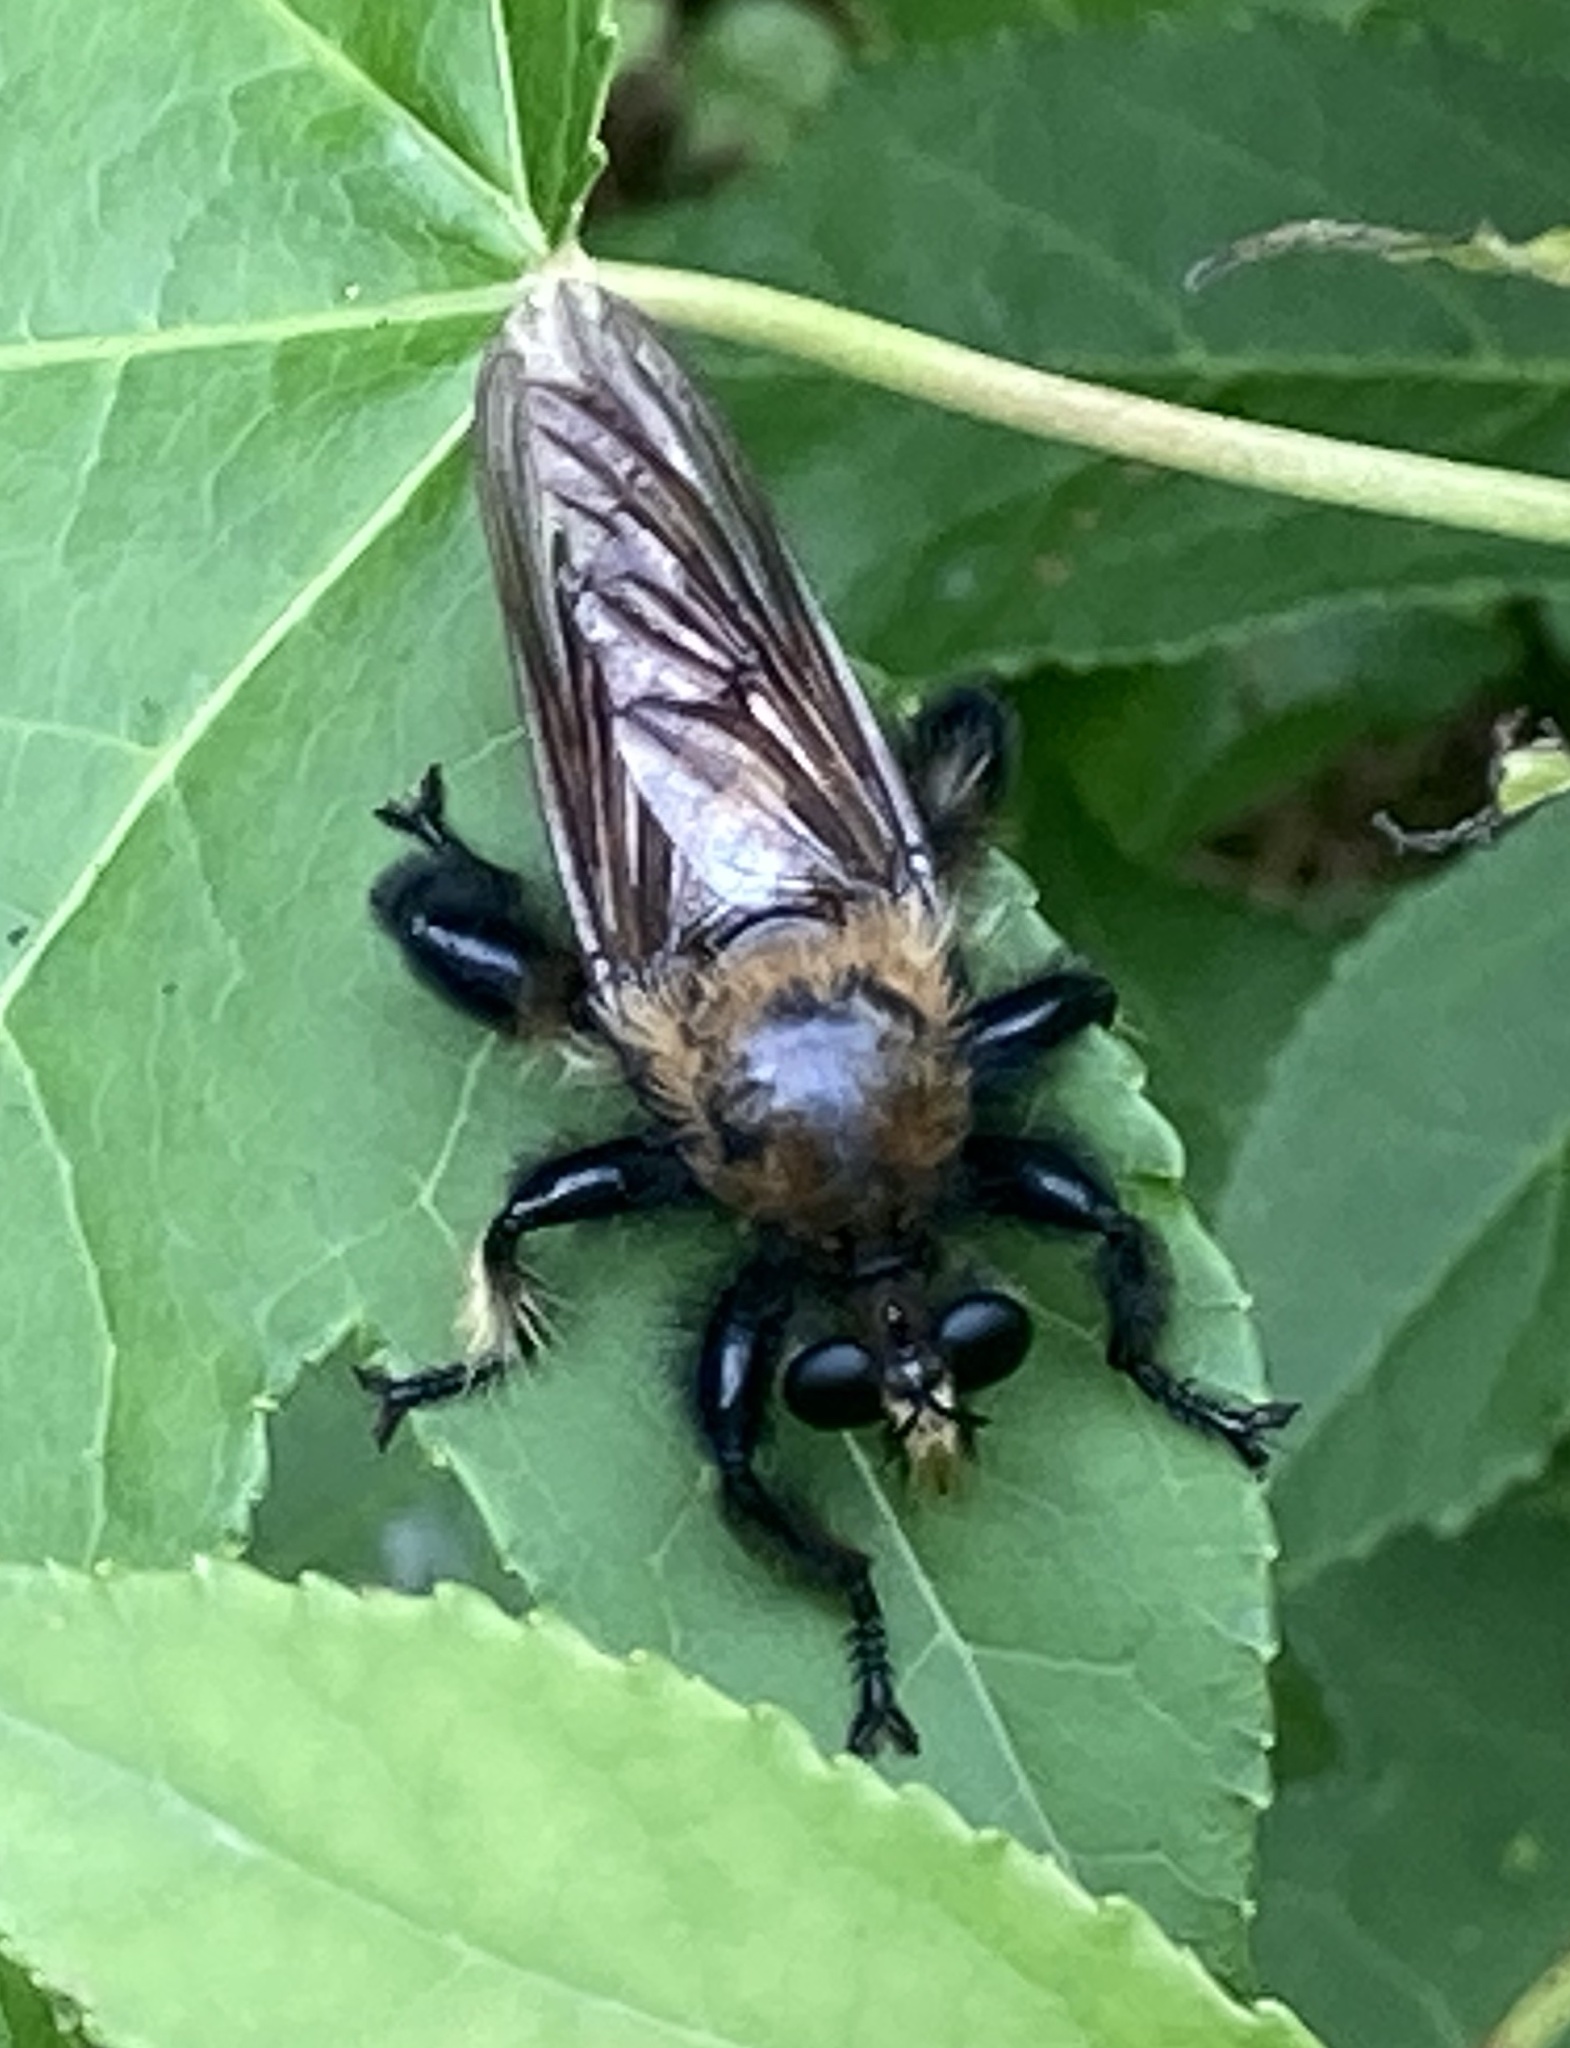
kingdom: Animalia
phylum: Arthropoda
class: Insecta
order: Diptera
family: Asilidae
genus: Laphria
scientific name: Laphria macquarti
